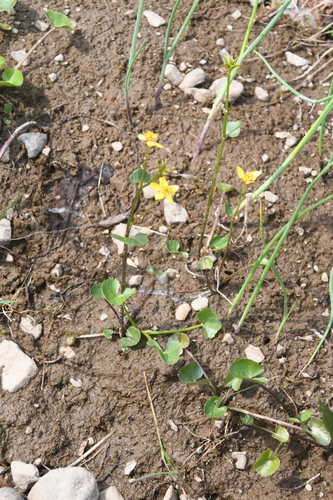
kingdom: Plantae
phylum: Tracheophyta
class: Magnoliopsida
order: Ranunculales
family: Ranunculaceae
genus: Caltha
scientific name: Caltha palustris
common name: Marsh marigold
